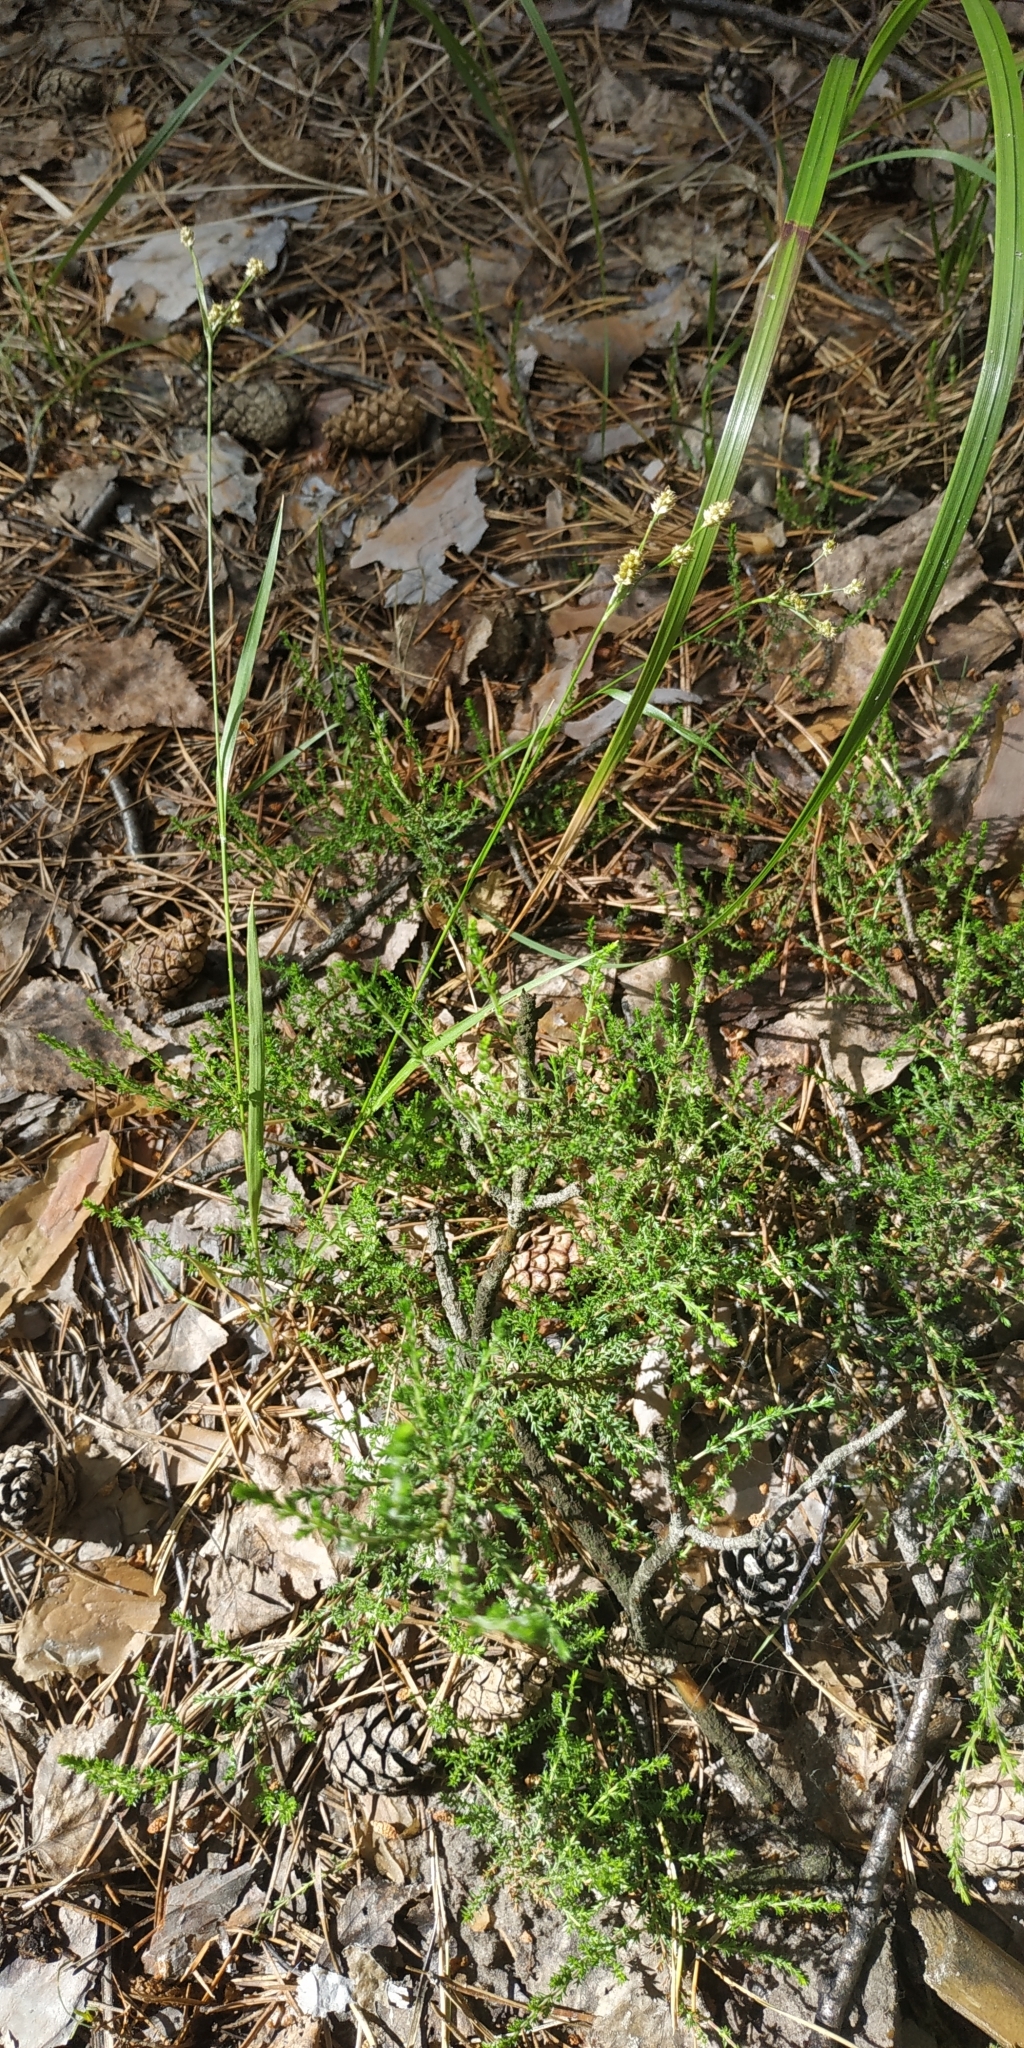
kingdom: Plantae
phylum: Tracheophyta
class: Liliopsida
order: Poales
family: Juncaceae
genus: Luzula
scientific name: Luzula pallescens
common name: Fen wood-rush
